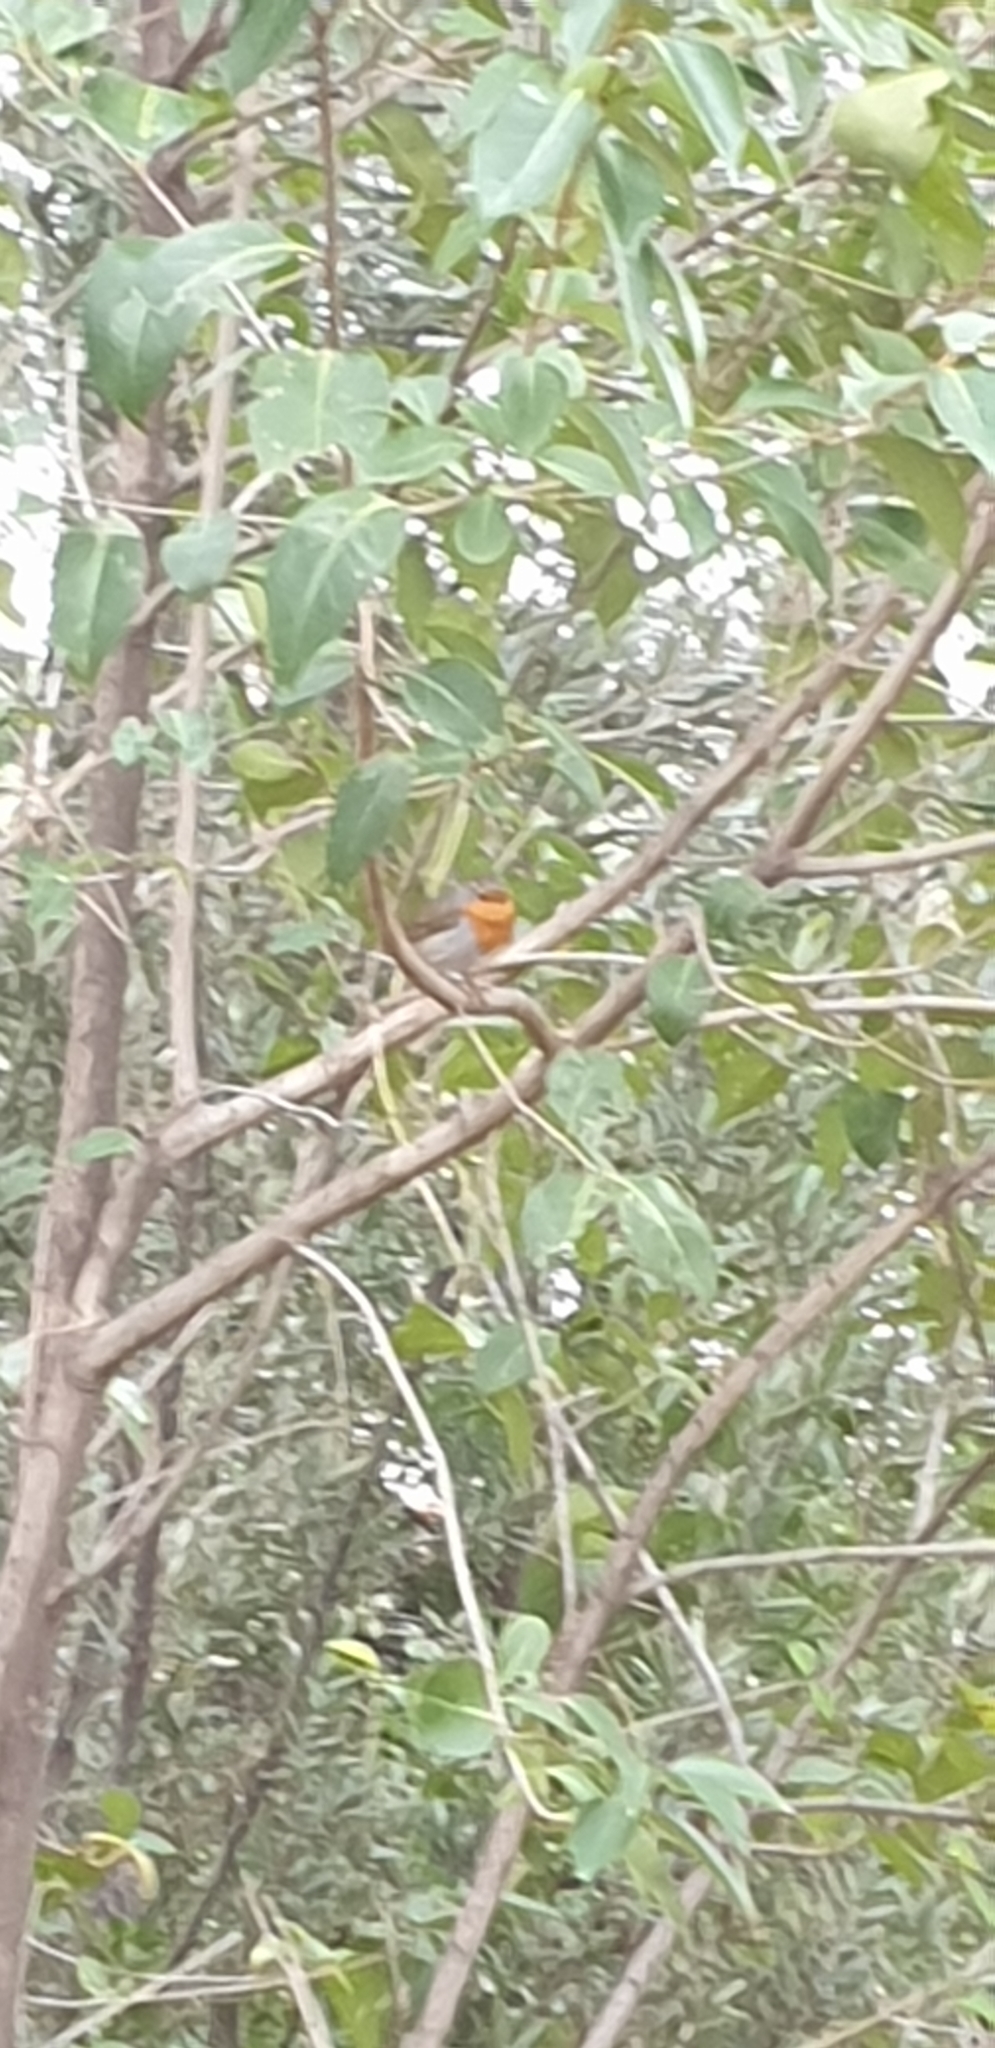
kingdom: Animalia
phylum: Chordata
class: Aves
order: Passeriformes
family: Muscicapidae
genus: Erithacus
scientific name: Erithacus rubecula
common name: European robin
